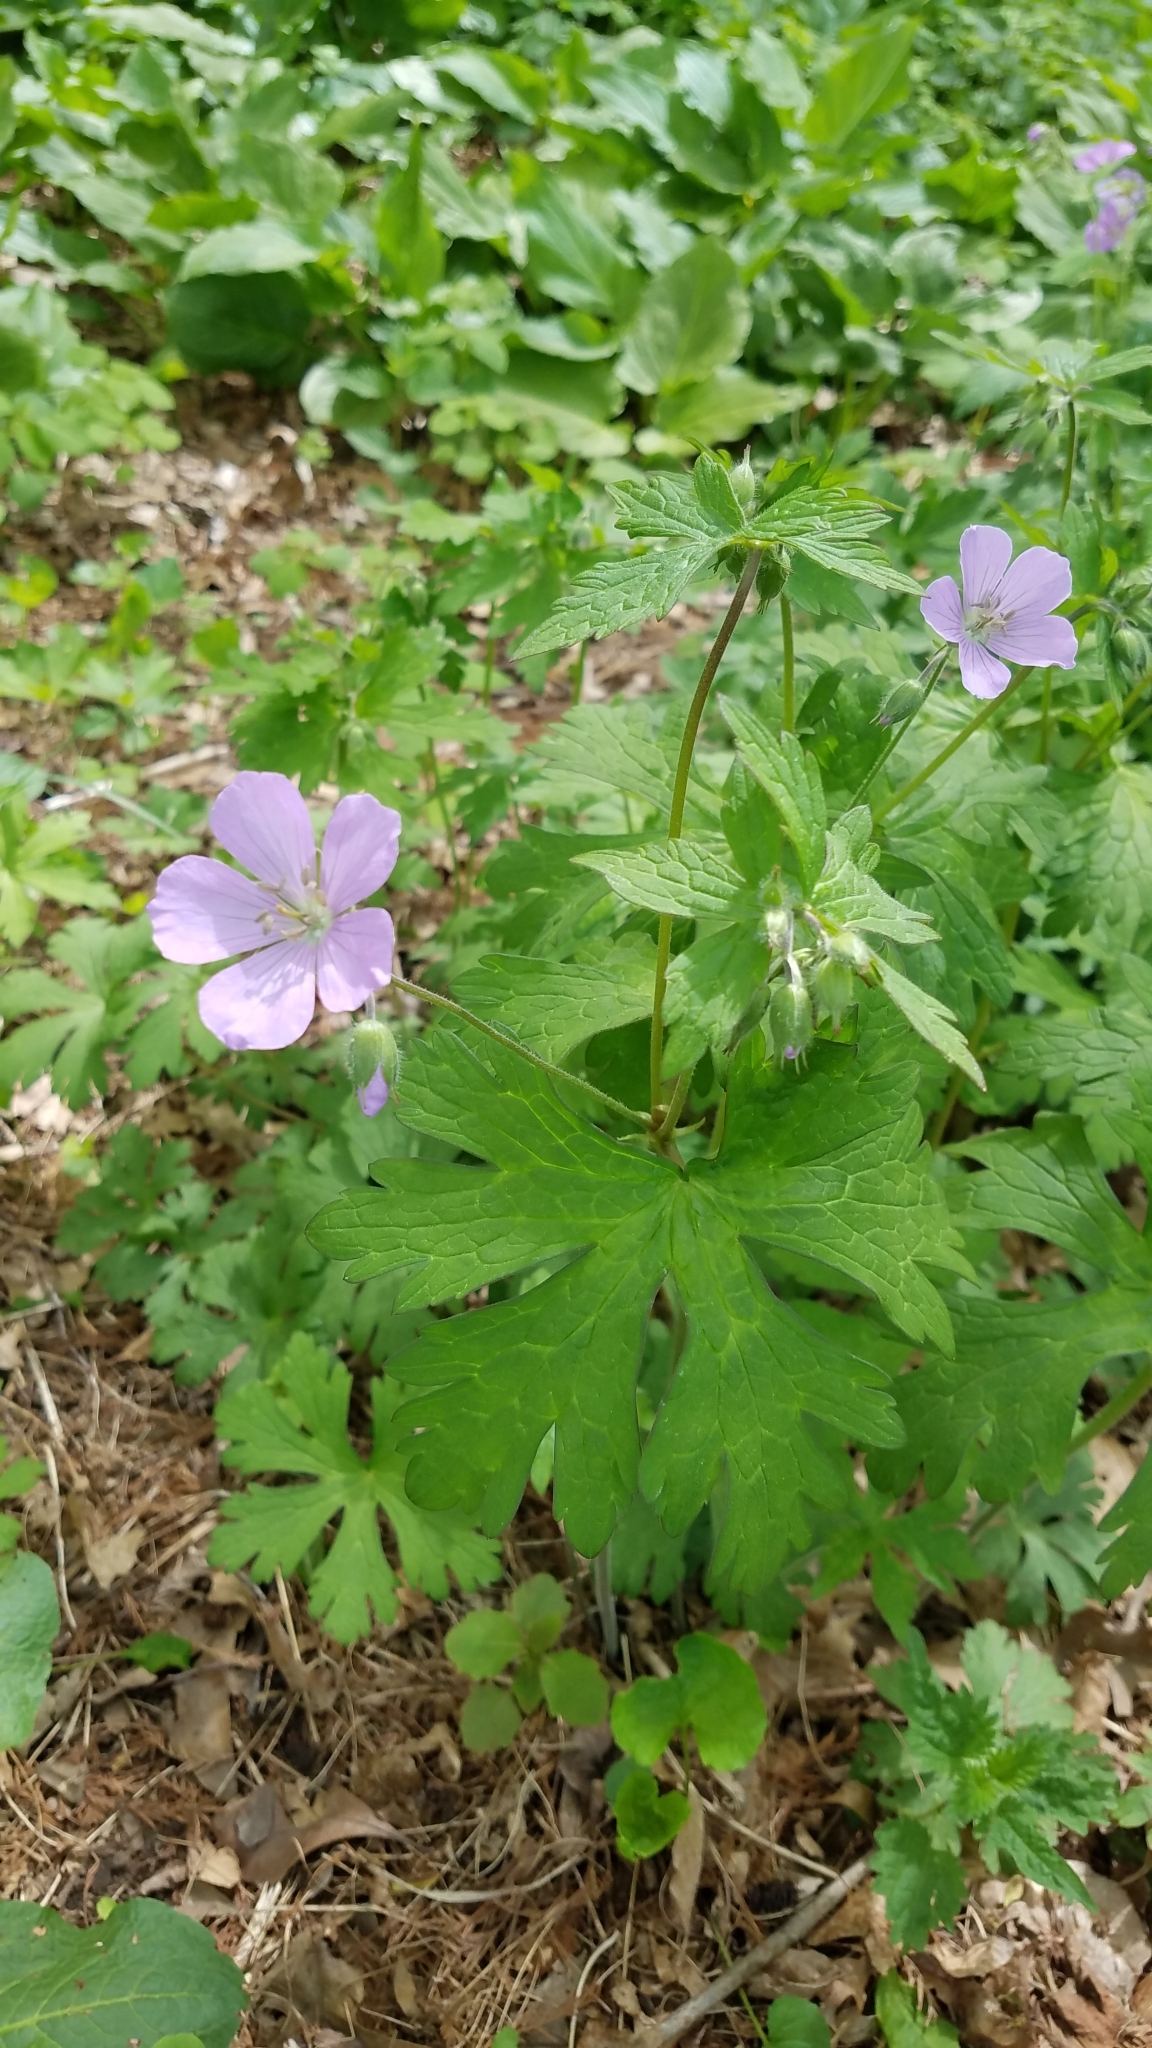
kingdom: Plantae
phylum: Tracheophyta
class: Magnoliopsida
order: Geraniales
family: Geraniaceae
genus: Geranium
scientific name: Geranium maculatum
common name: Spotted geranium
